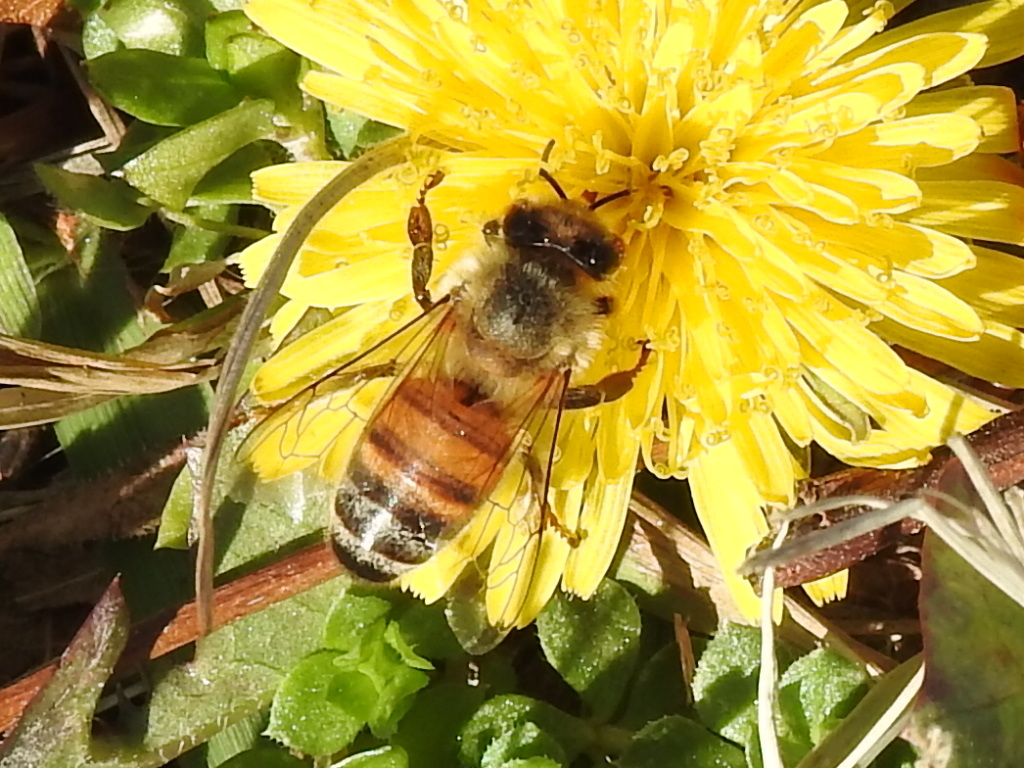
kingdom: Animalia
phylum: Arthropoda
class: Insecta
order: Hymenoptera
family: Apidae
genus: Apis
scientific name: Apis mellifera
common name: Honey bee
